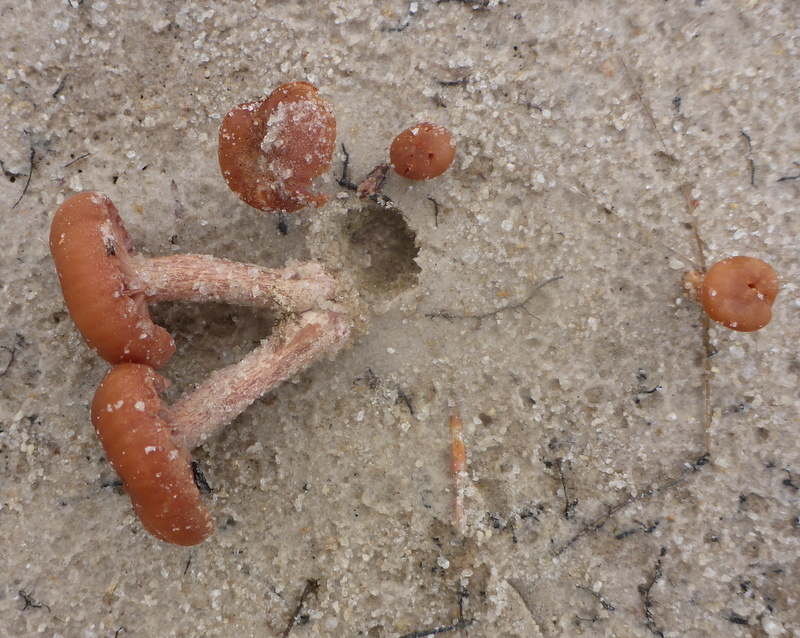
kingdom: Fungi
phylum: Basidiomycota
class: Agaricomycetes
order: Agaricales
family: Hydnangiaceae
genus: Laccaria
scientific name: Laccaria laccata
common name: Deceiver
